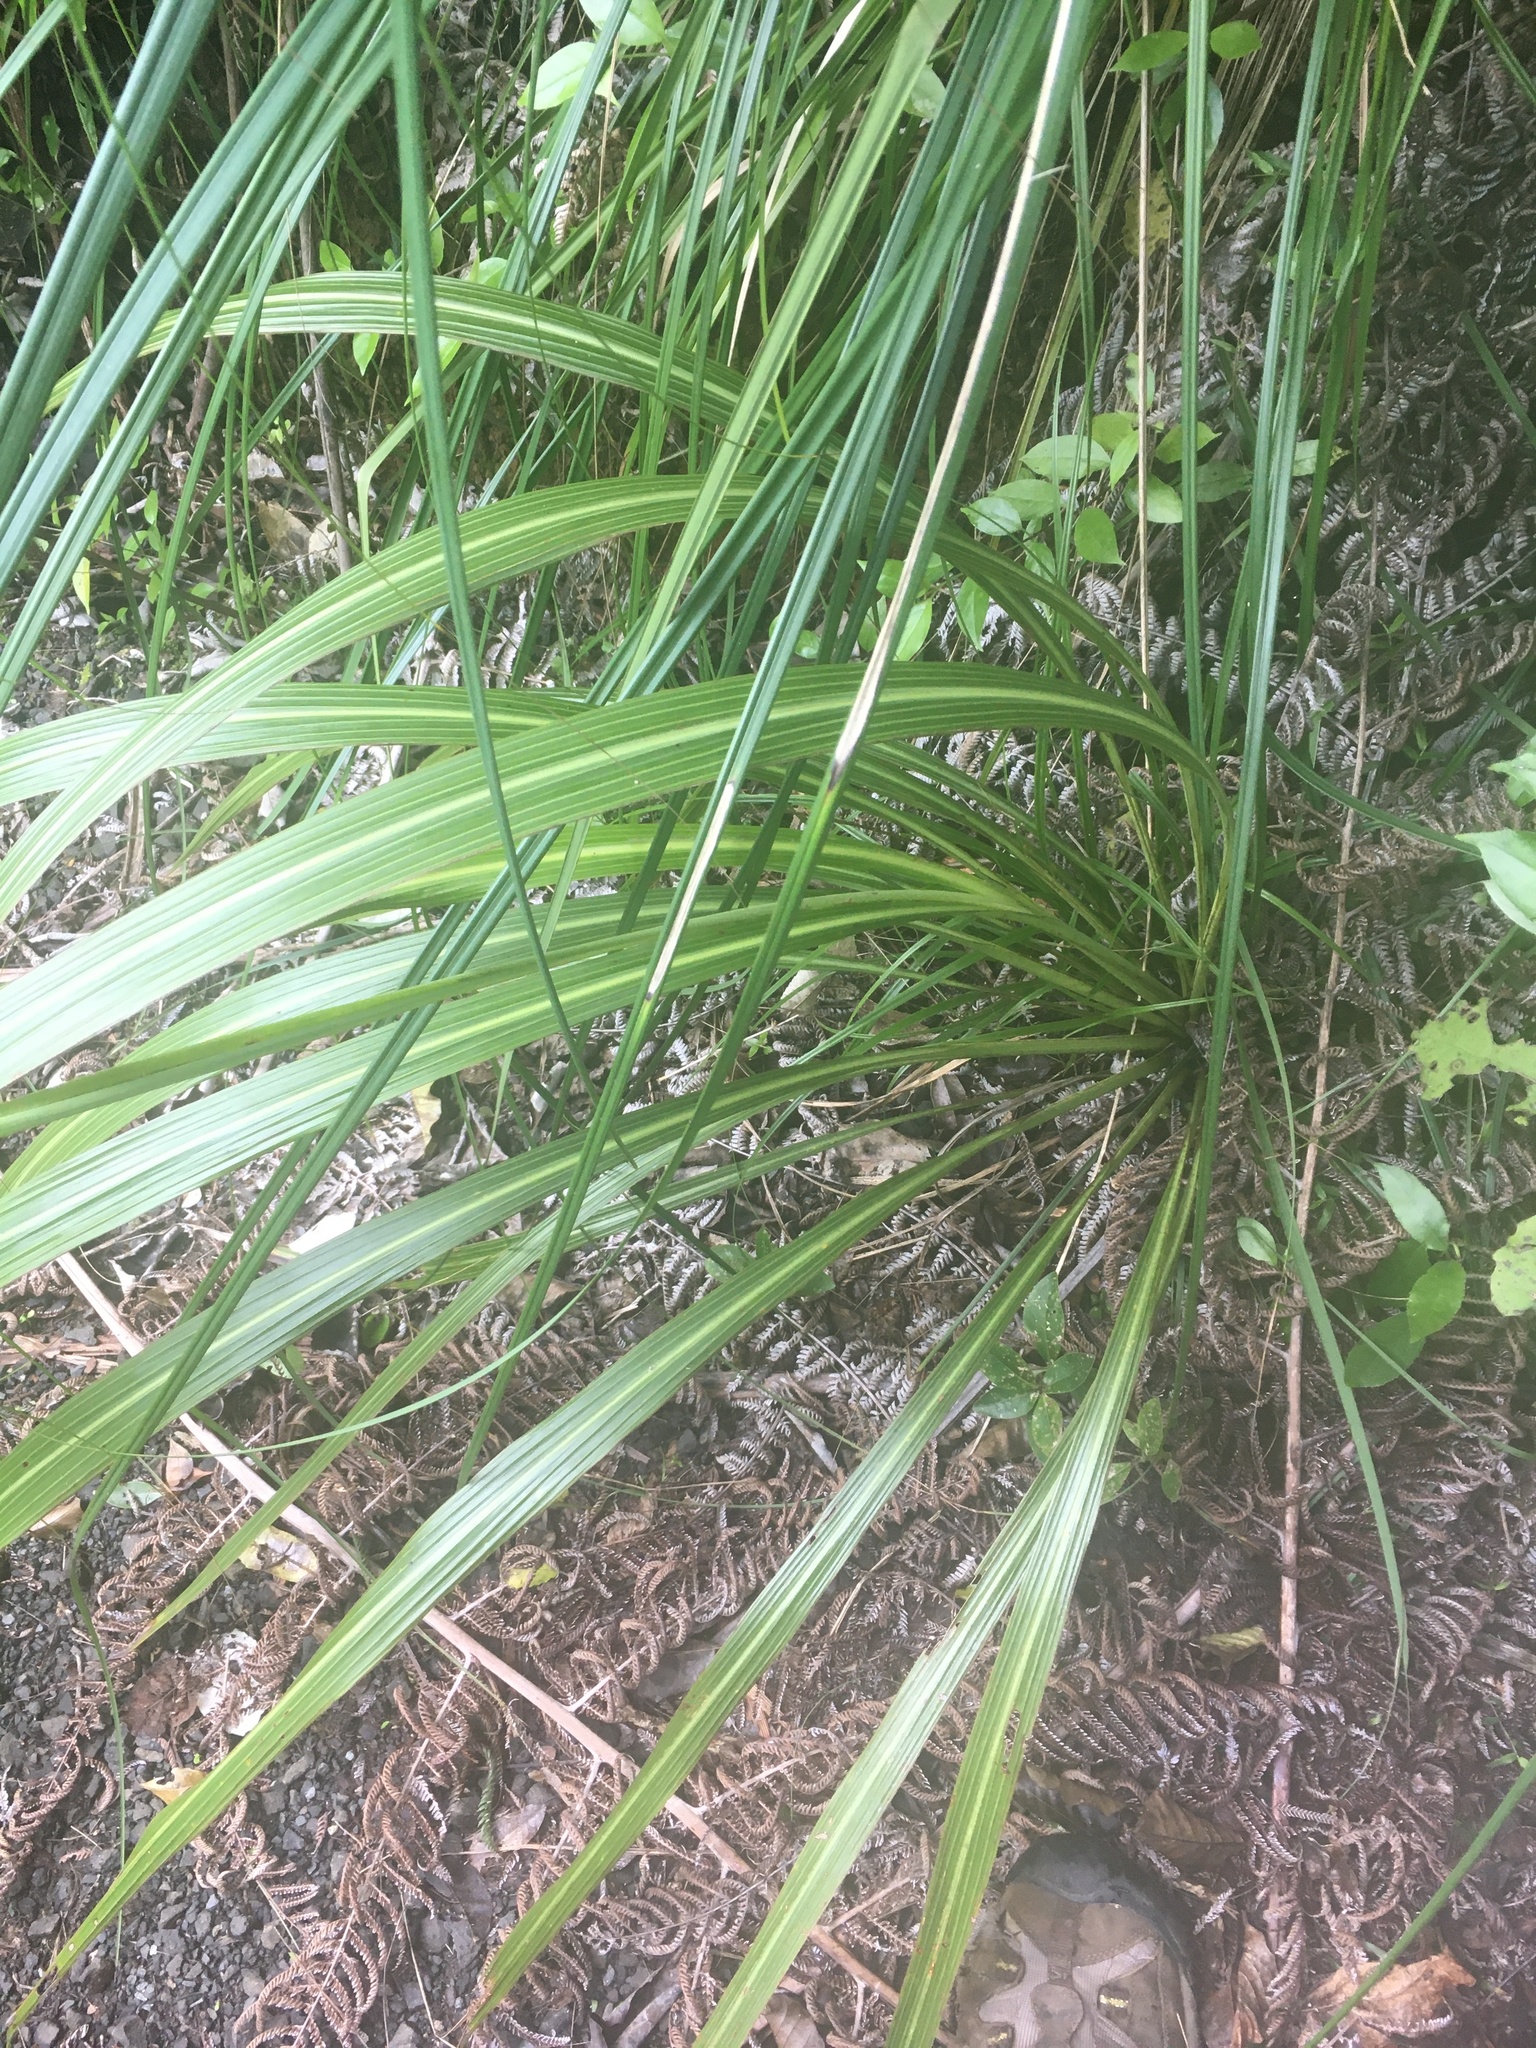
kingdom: Plantae
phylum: Tracheophyta
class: Liliopsida
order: Asparagales
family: Asparagaceae
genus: Cordyline
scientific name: Cordyline banksii
